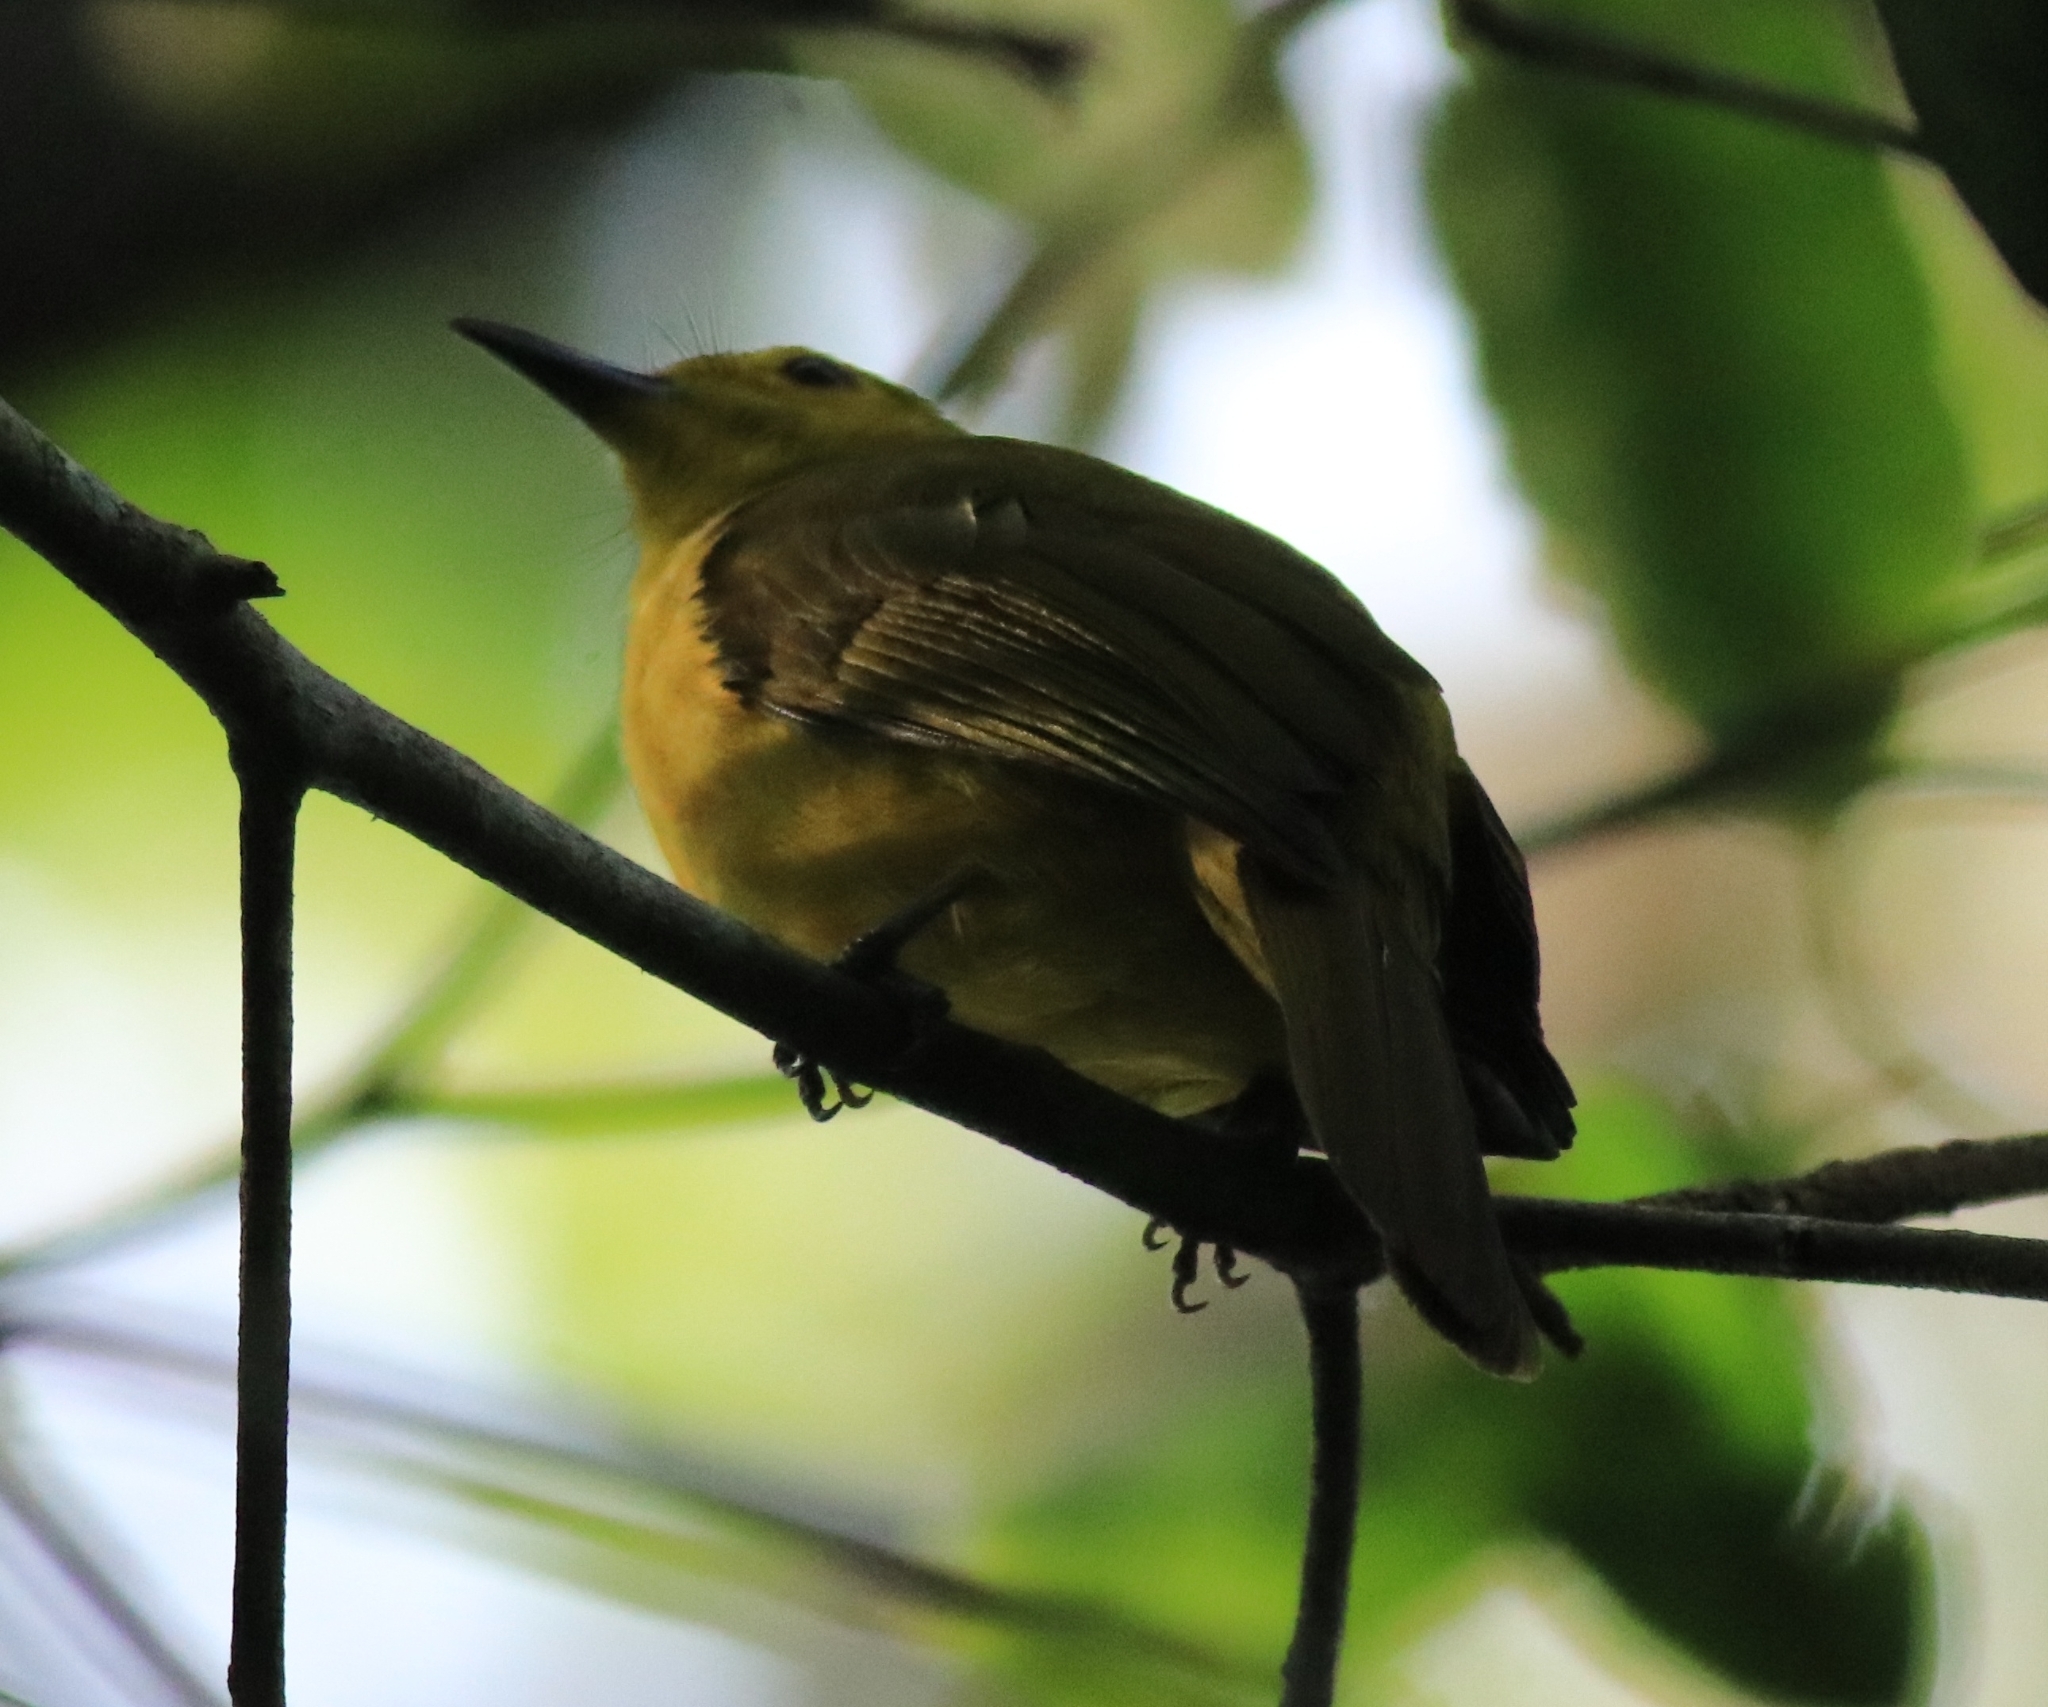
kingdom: Animalia
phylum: Chordata
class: Aves
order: Passeriformes
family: Pycnonotidae
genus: Acritillas
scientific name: Acritillas indica
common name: Yellow-browed bulbul
